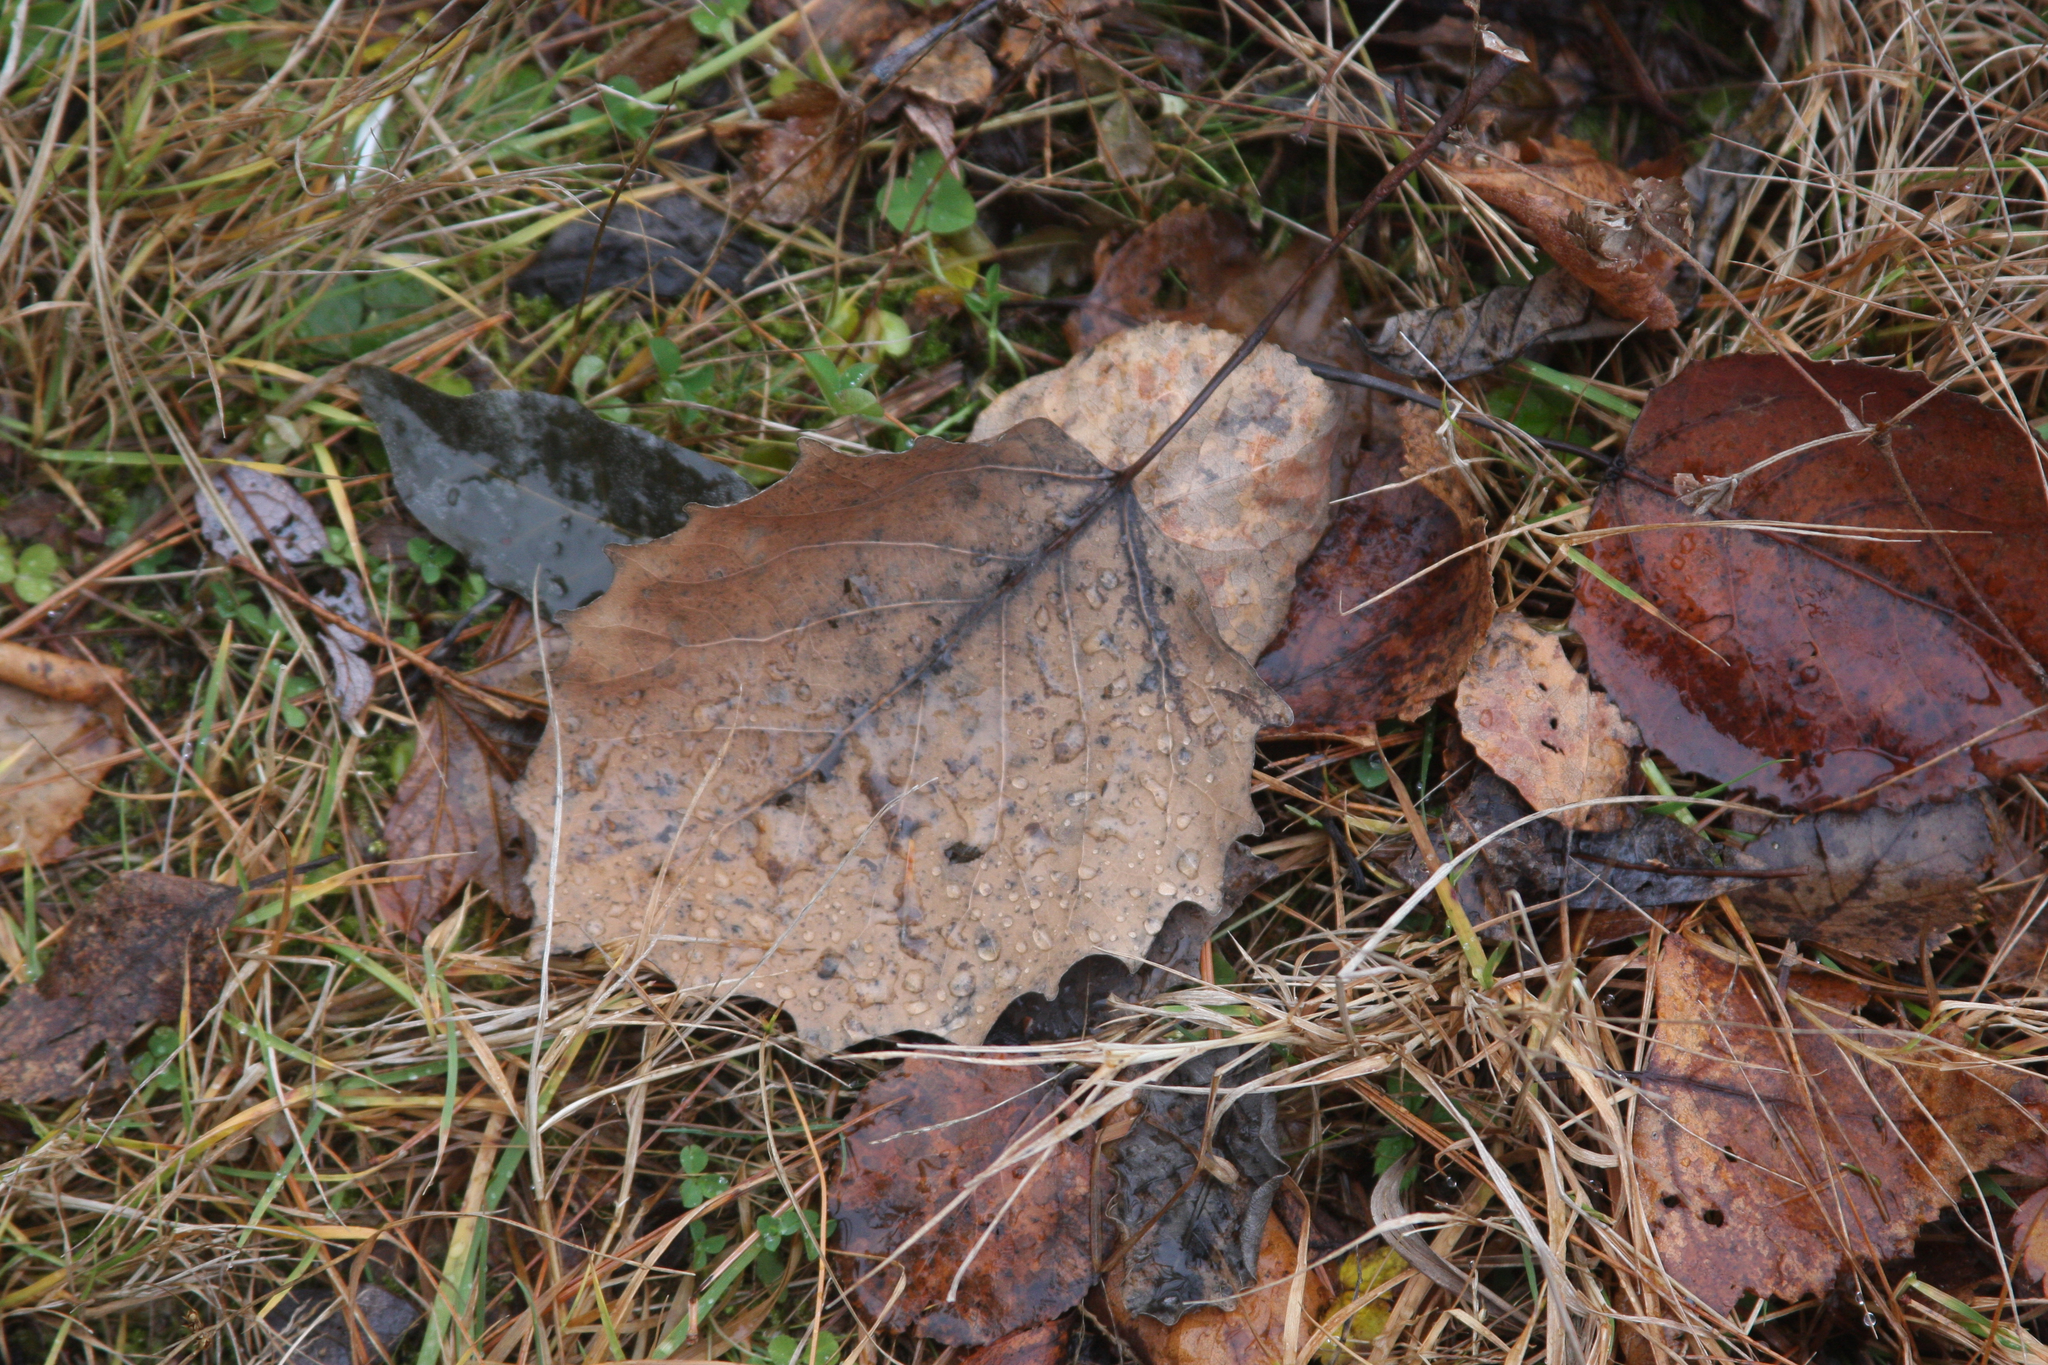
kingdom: Plantae
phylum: Tracheophyta
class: Magnoliopsida
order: Malpighiales
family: Salicaceae
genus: Populus
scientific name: Populus grandidentata
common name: Bigtooth aspen
